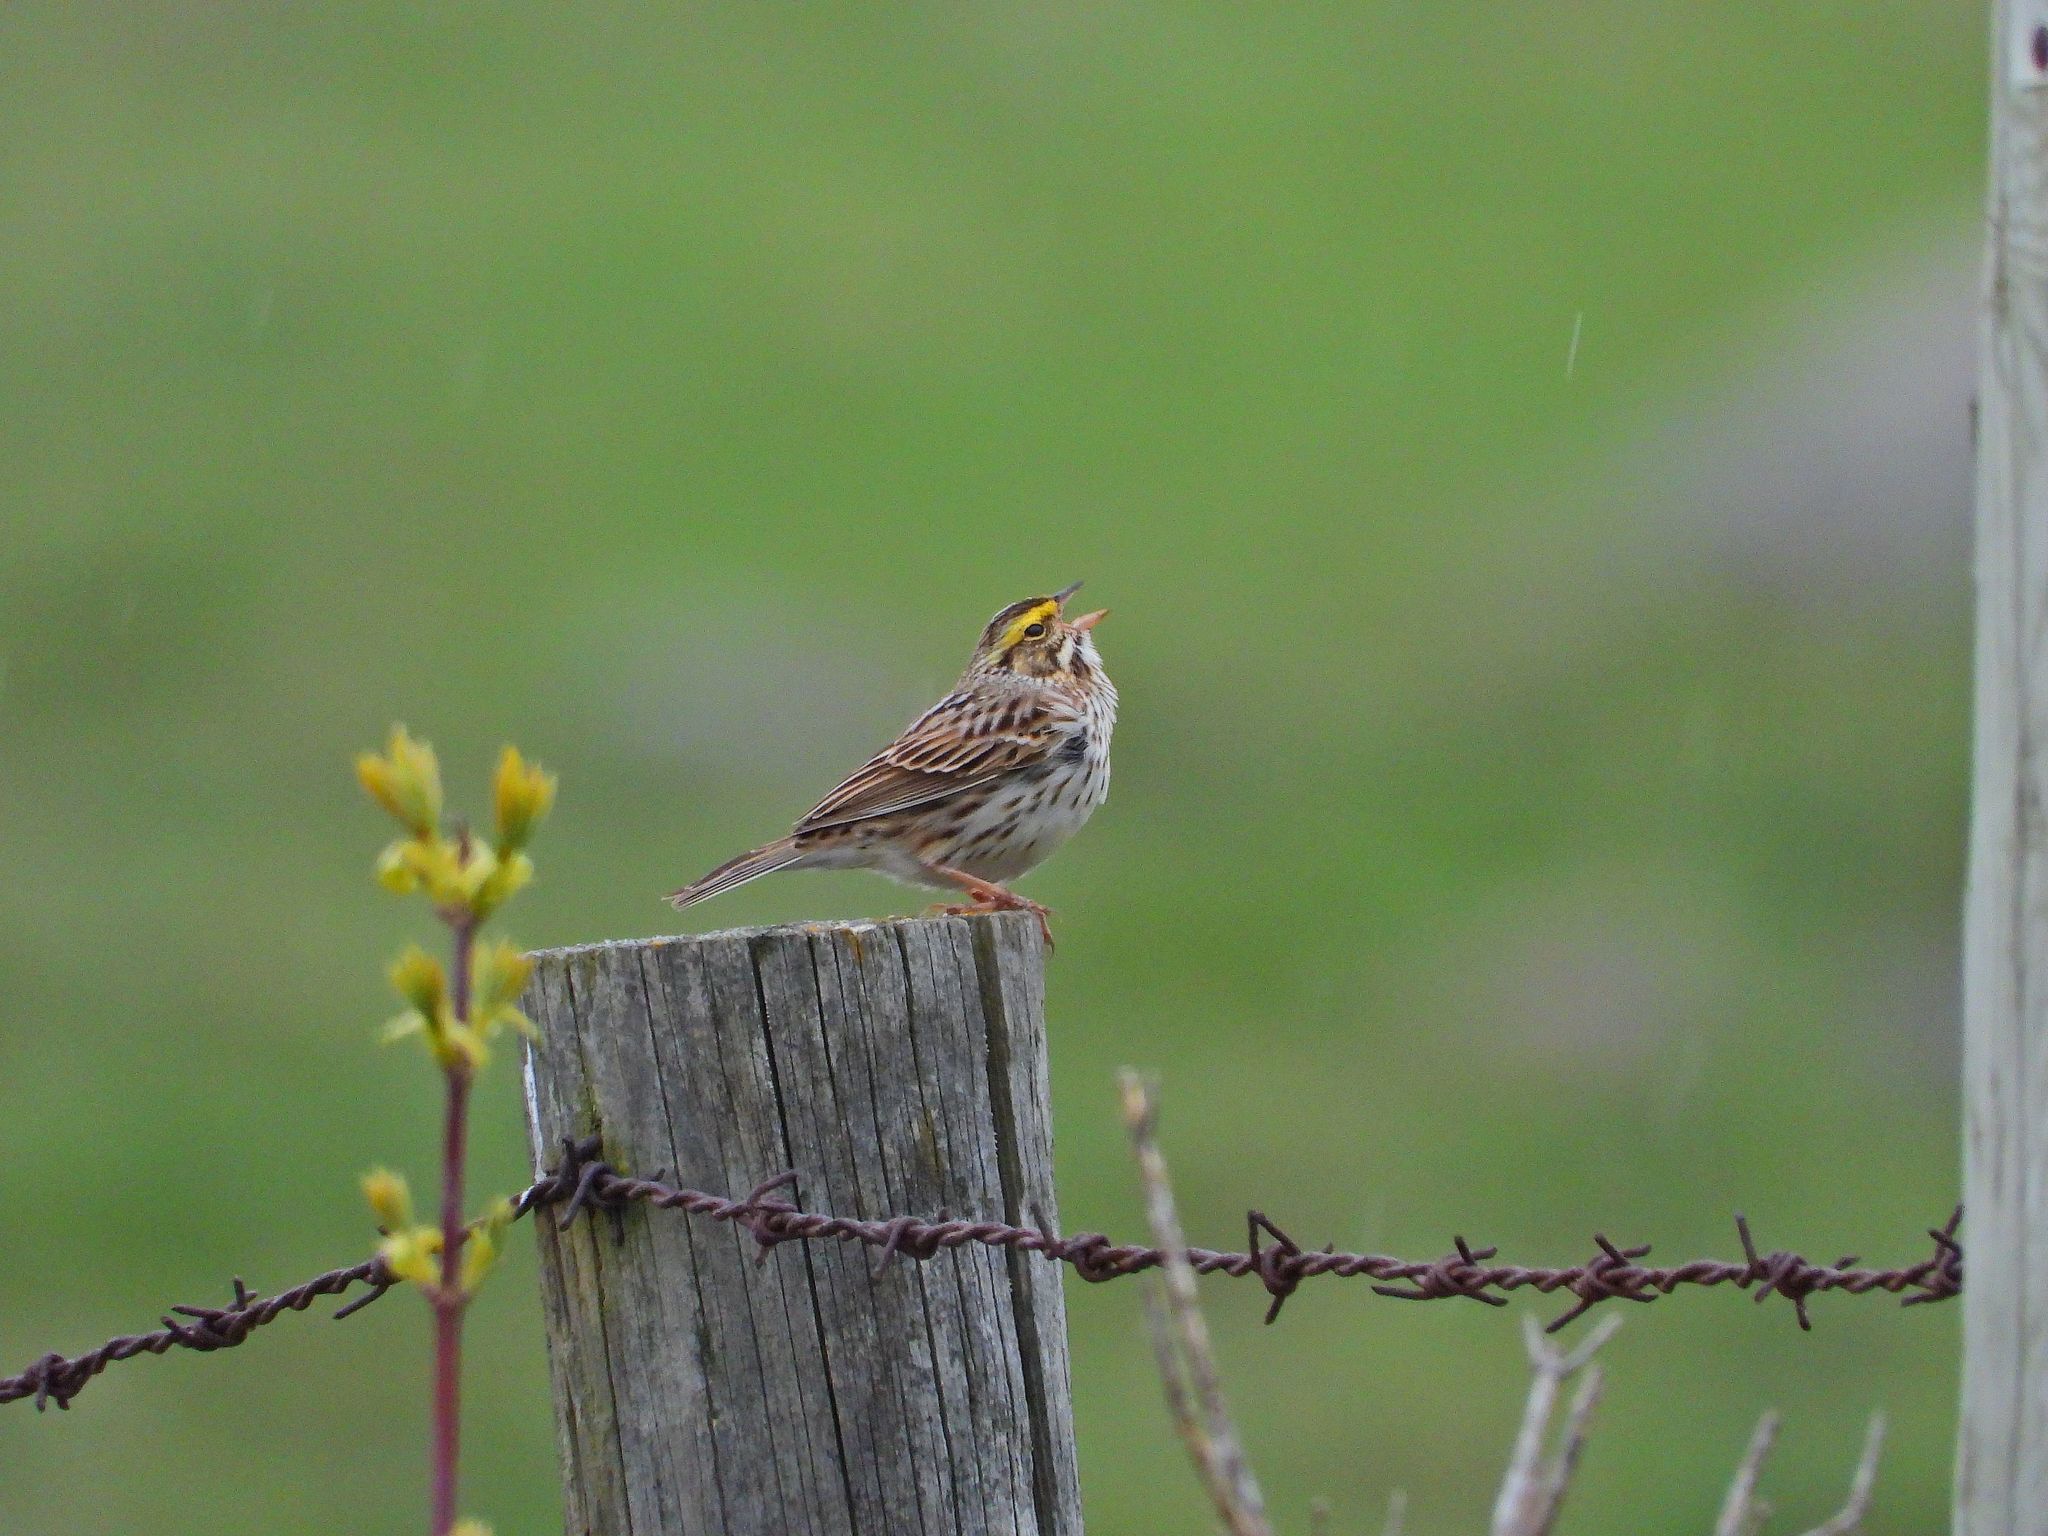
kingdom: Animalia
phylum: Chordata
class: Aves
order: Passeriformes
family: Passerellidae
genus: Passerculus
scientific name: Passerculus sandwichensis
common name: Savannah sparrow
